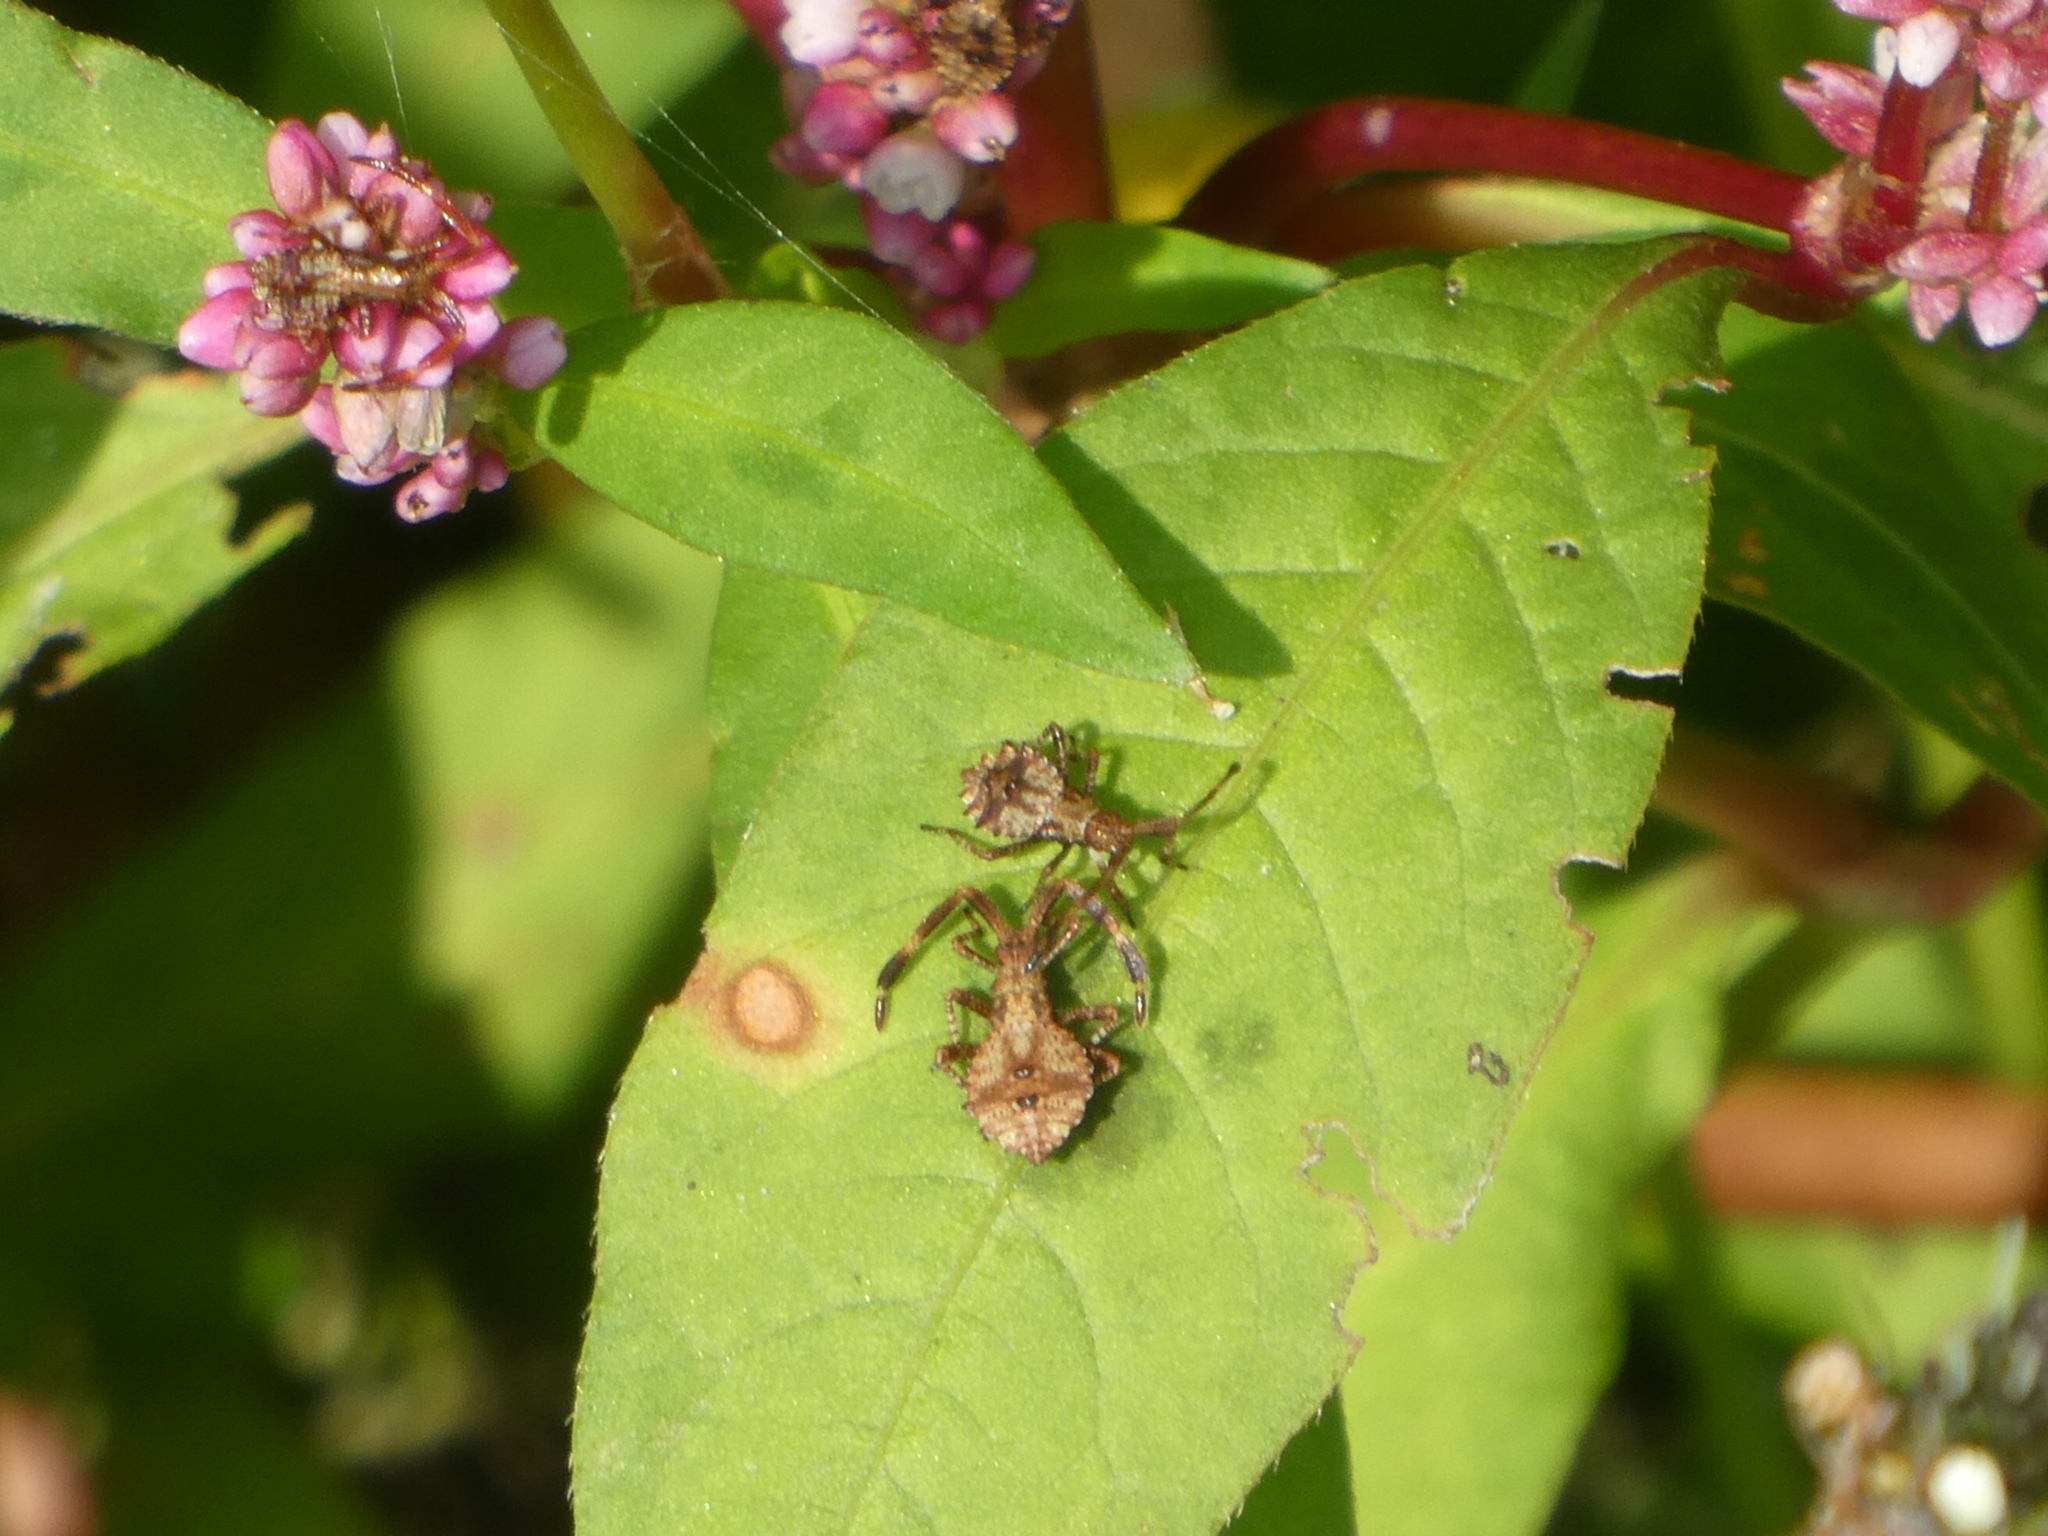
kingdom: Animalia
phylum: Arthropoda
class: Insecta
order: Hemiptera
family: Coreidae
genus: Coreus
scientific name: Coreus marginatus
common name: Dock bug
